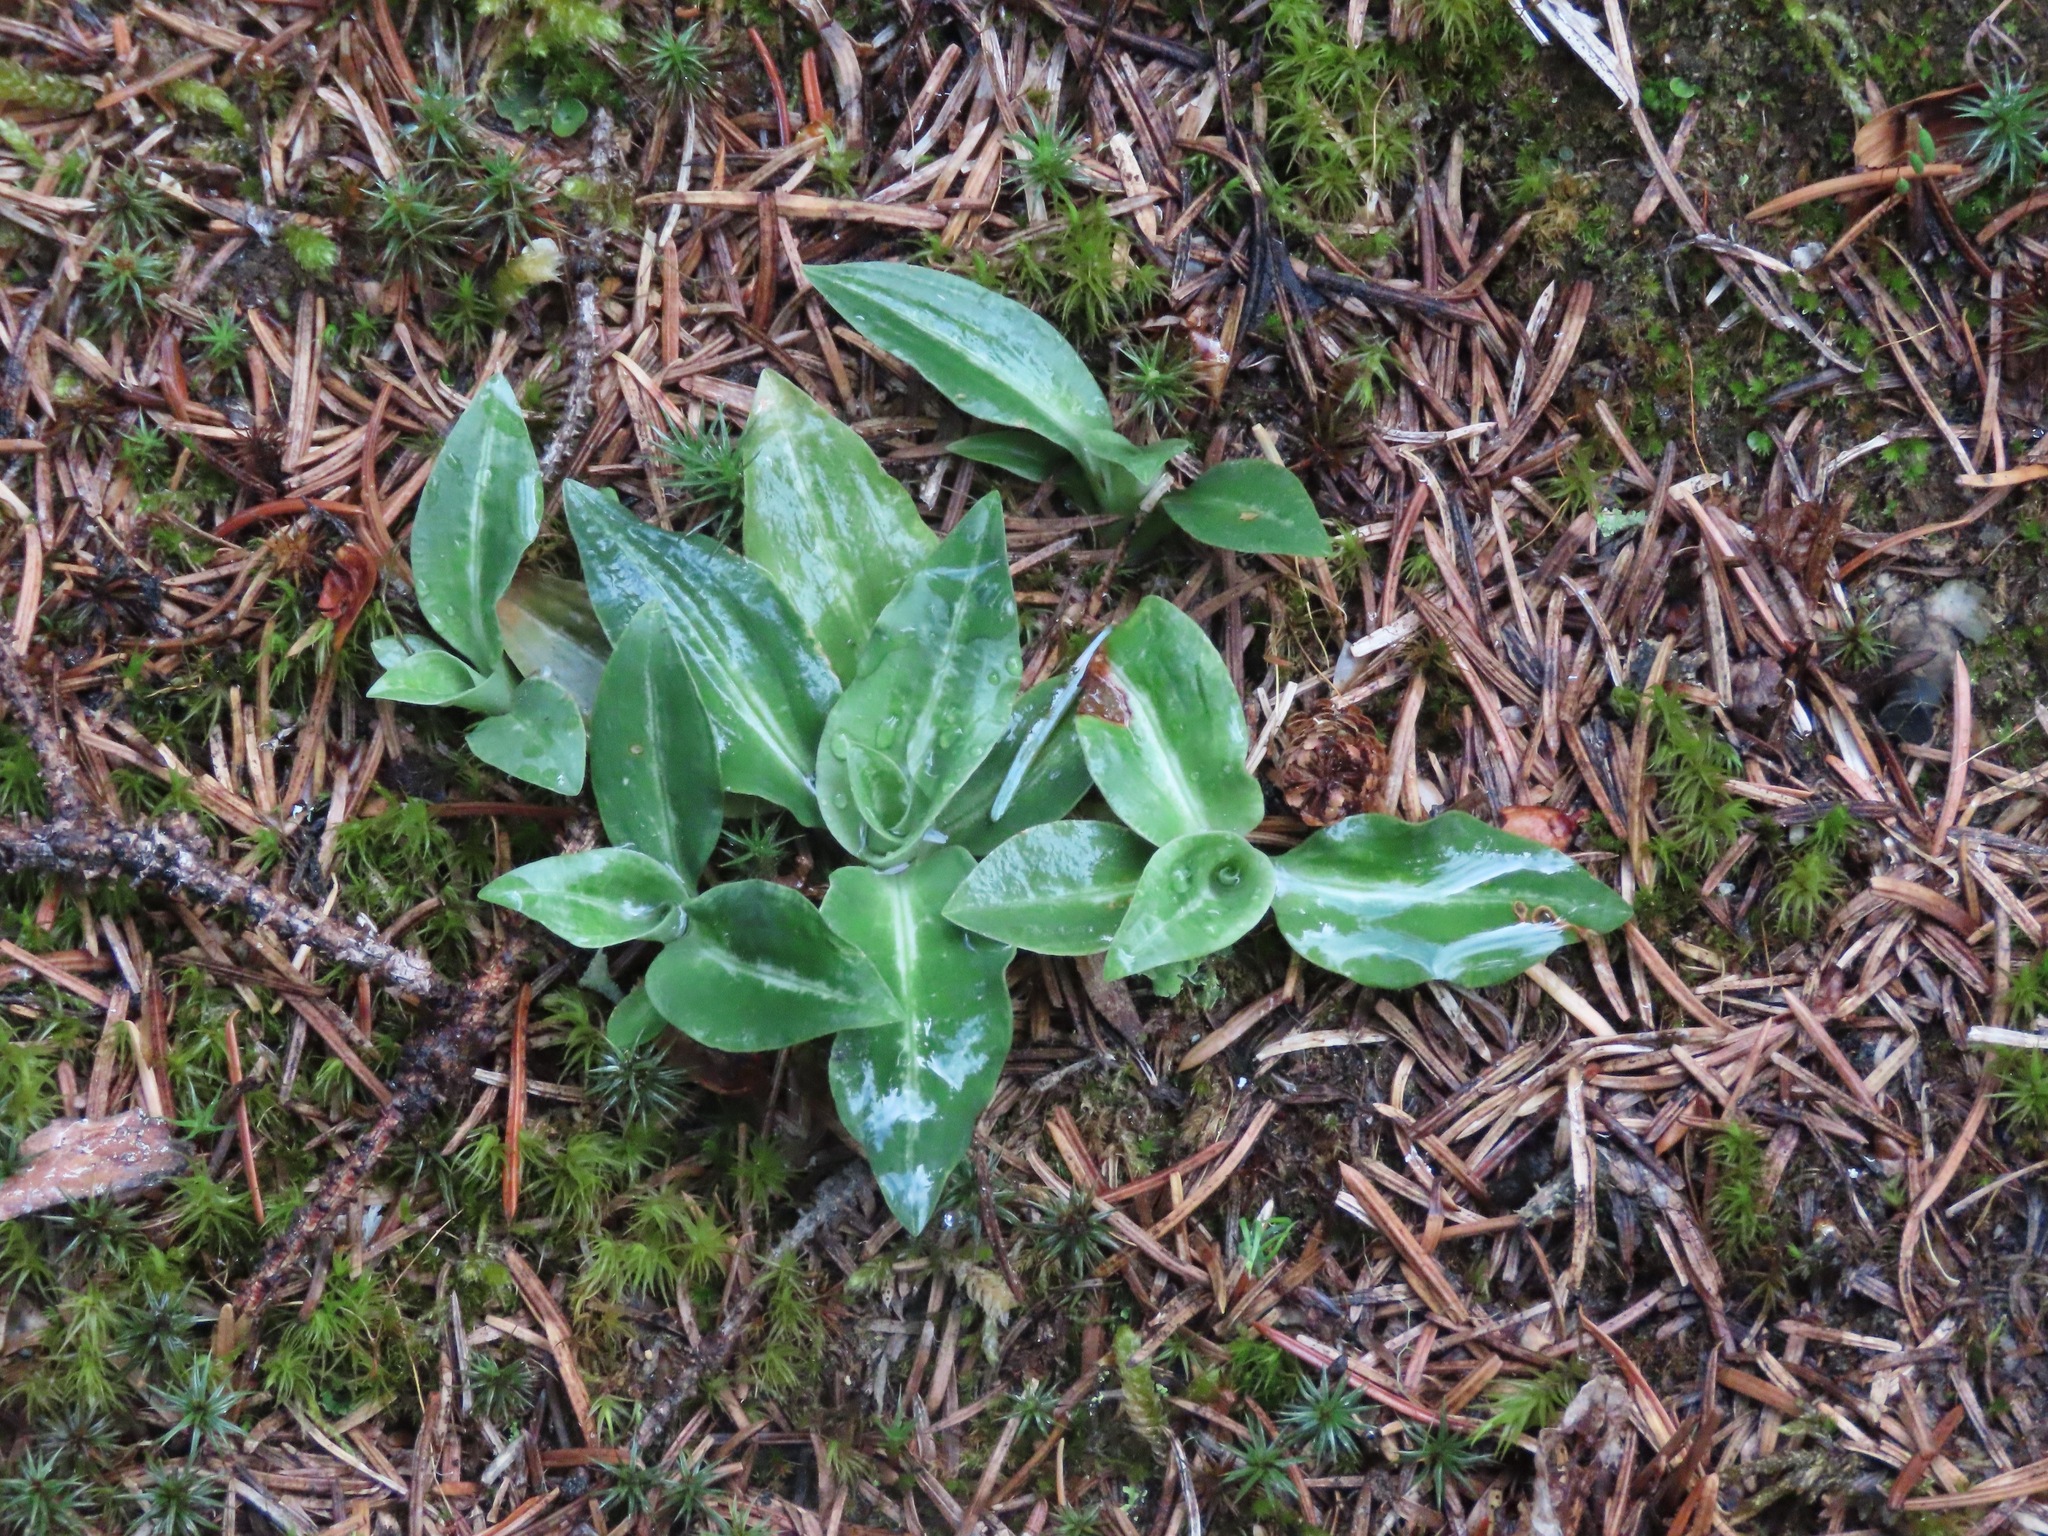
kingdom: Plantae
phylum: Tracheophyta
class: Liliopsida
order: Asparagales
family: Orchidaceae
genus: Goodyera
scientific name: Goodyera oblongifolia
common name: Giant rattlesnake-plantain
